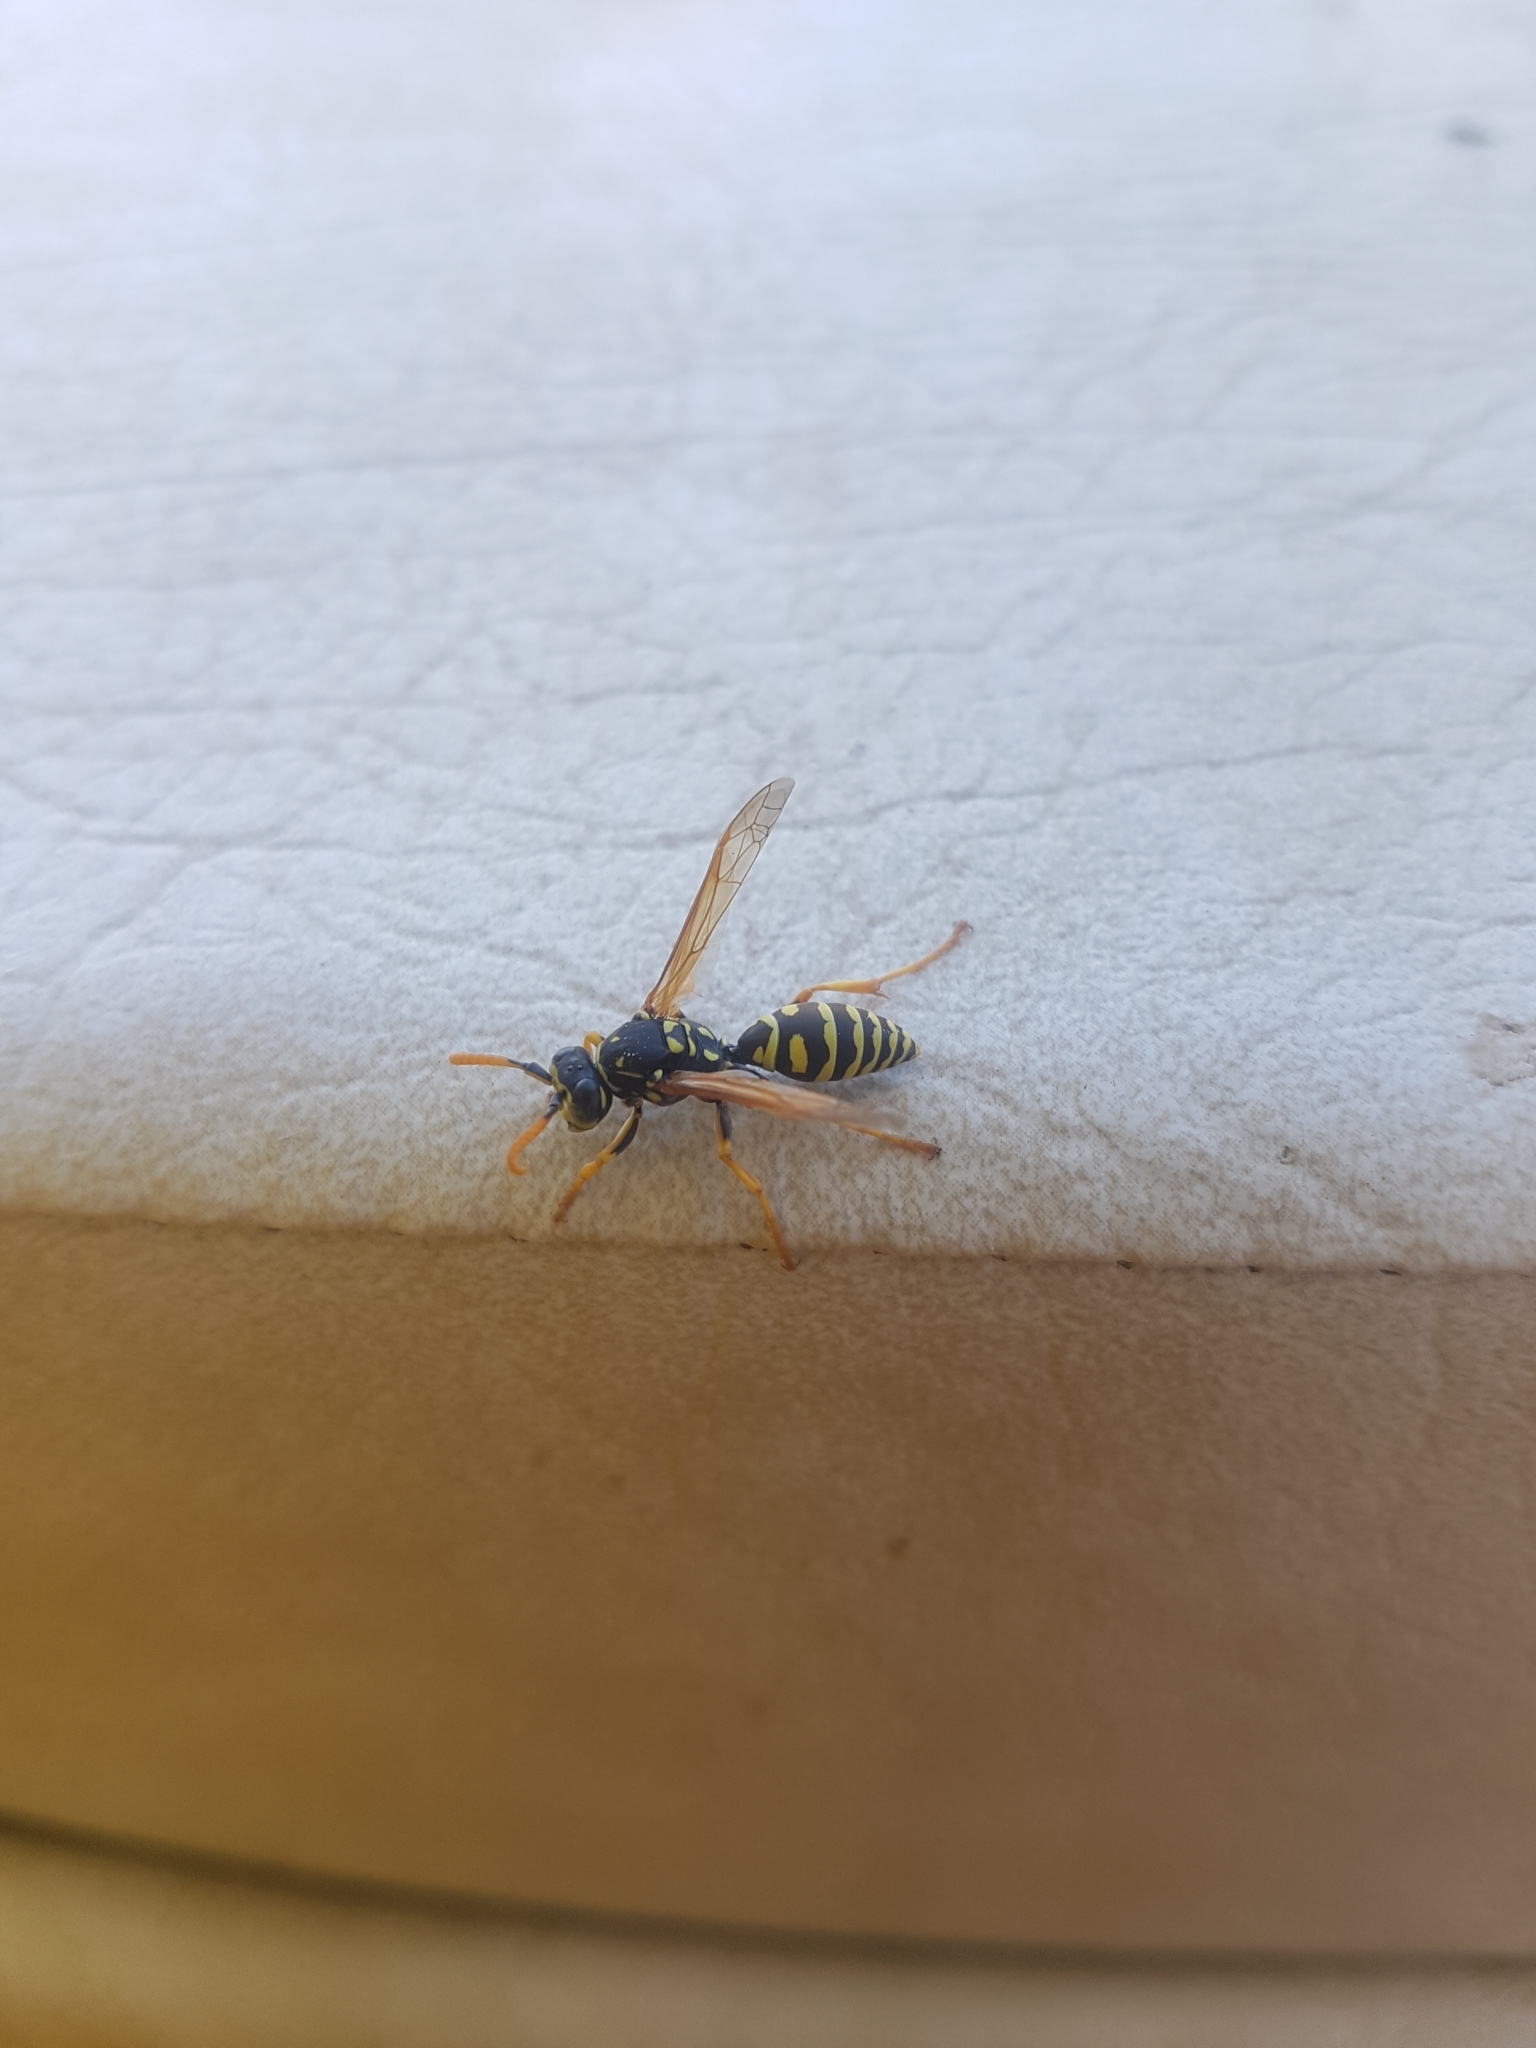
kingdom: Animalia
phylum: Arthropoda
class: Insecta
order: Hymenoptera
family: Eumenidae
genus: Polistes
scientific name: Polistes dominula
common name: Paper wasp
